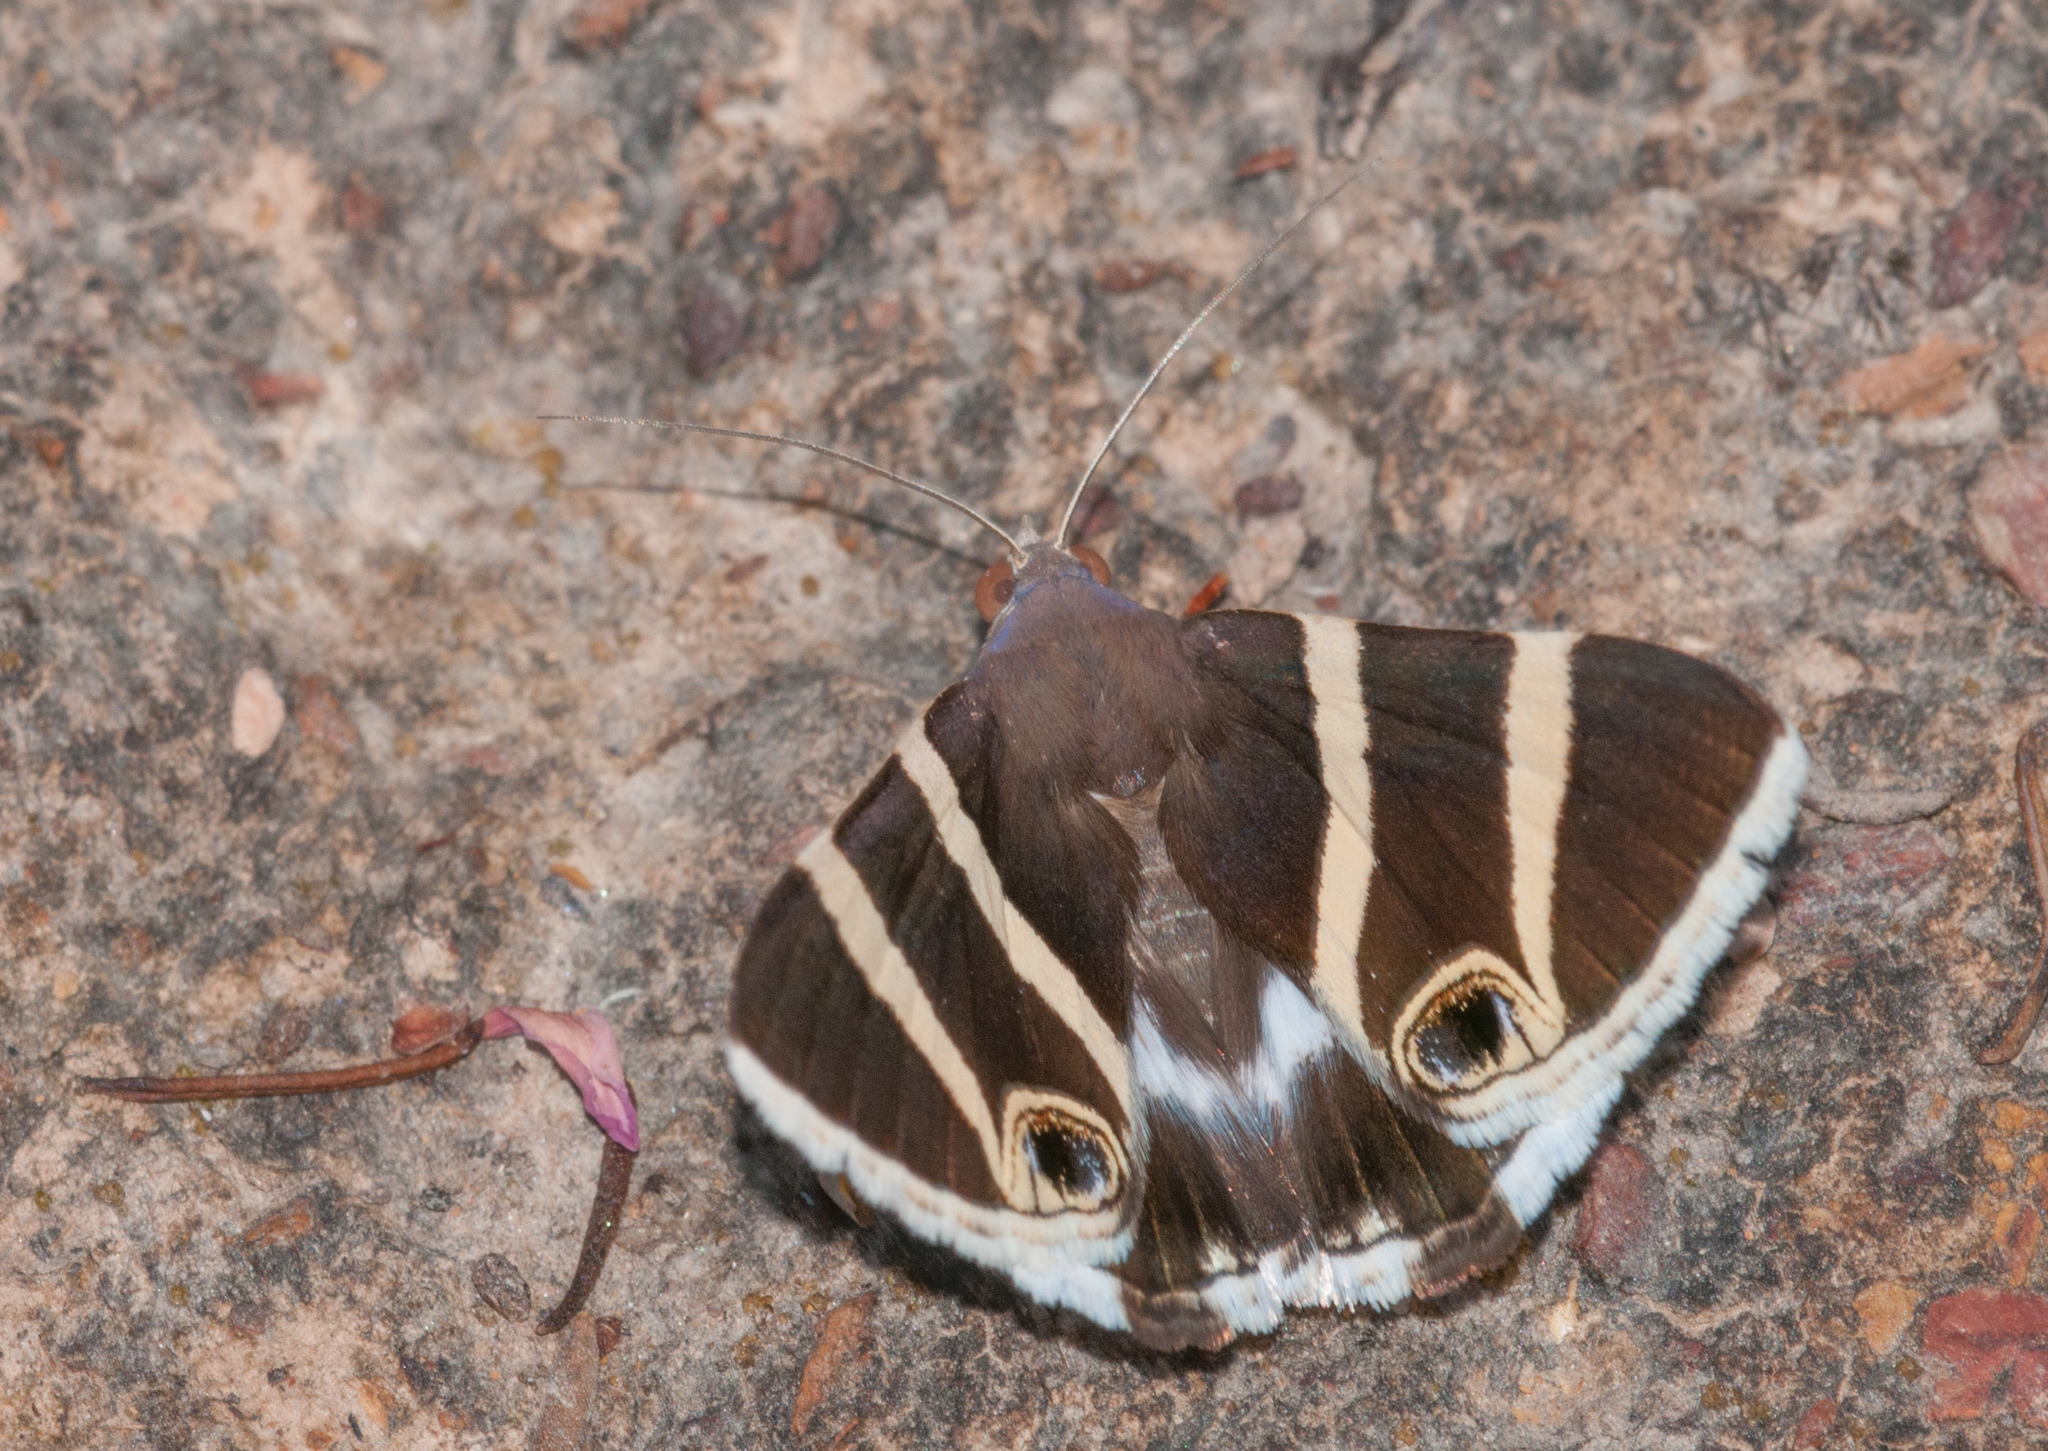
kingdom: Animalia
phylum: Arthropoda
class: Insecta
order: Lepidoptera
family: Erebidae
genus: Grammodes
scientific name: Grammodes ocellata
